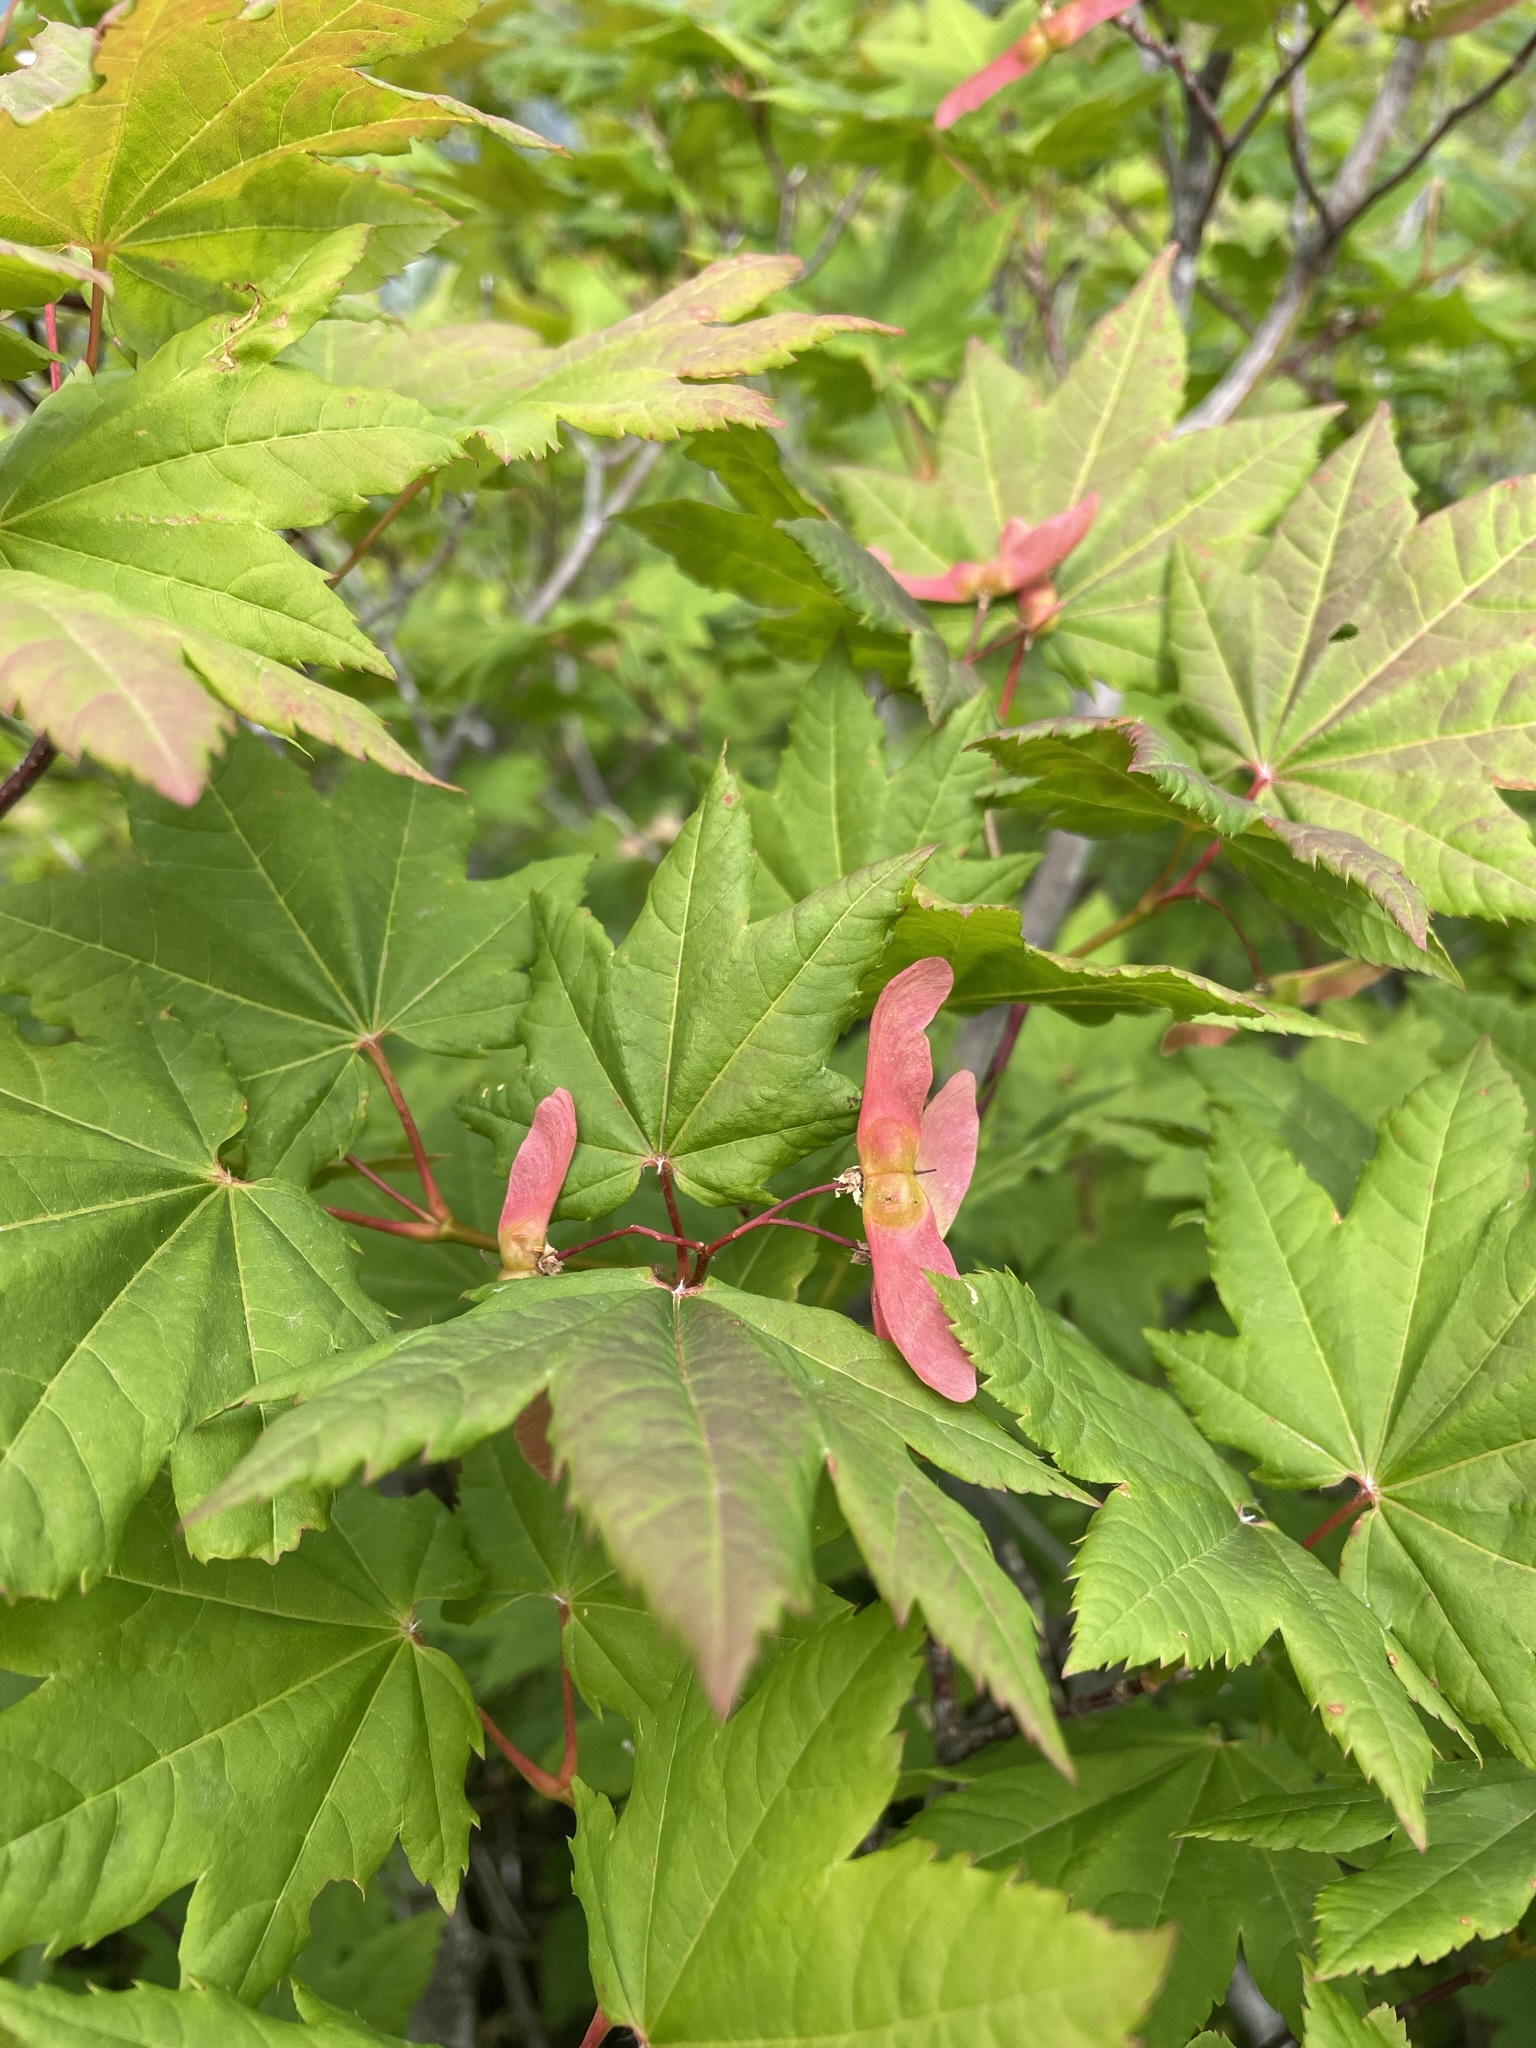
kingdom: Plantae
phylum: Tracheophyta
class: Magnoliopsida
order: Sapindales
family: Sapindaceae
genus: Acer
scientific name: Acer circinatum
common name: Vine maple
